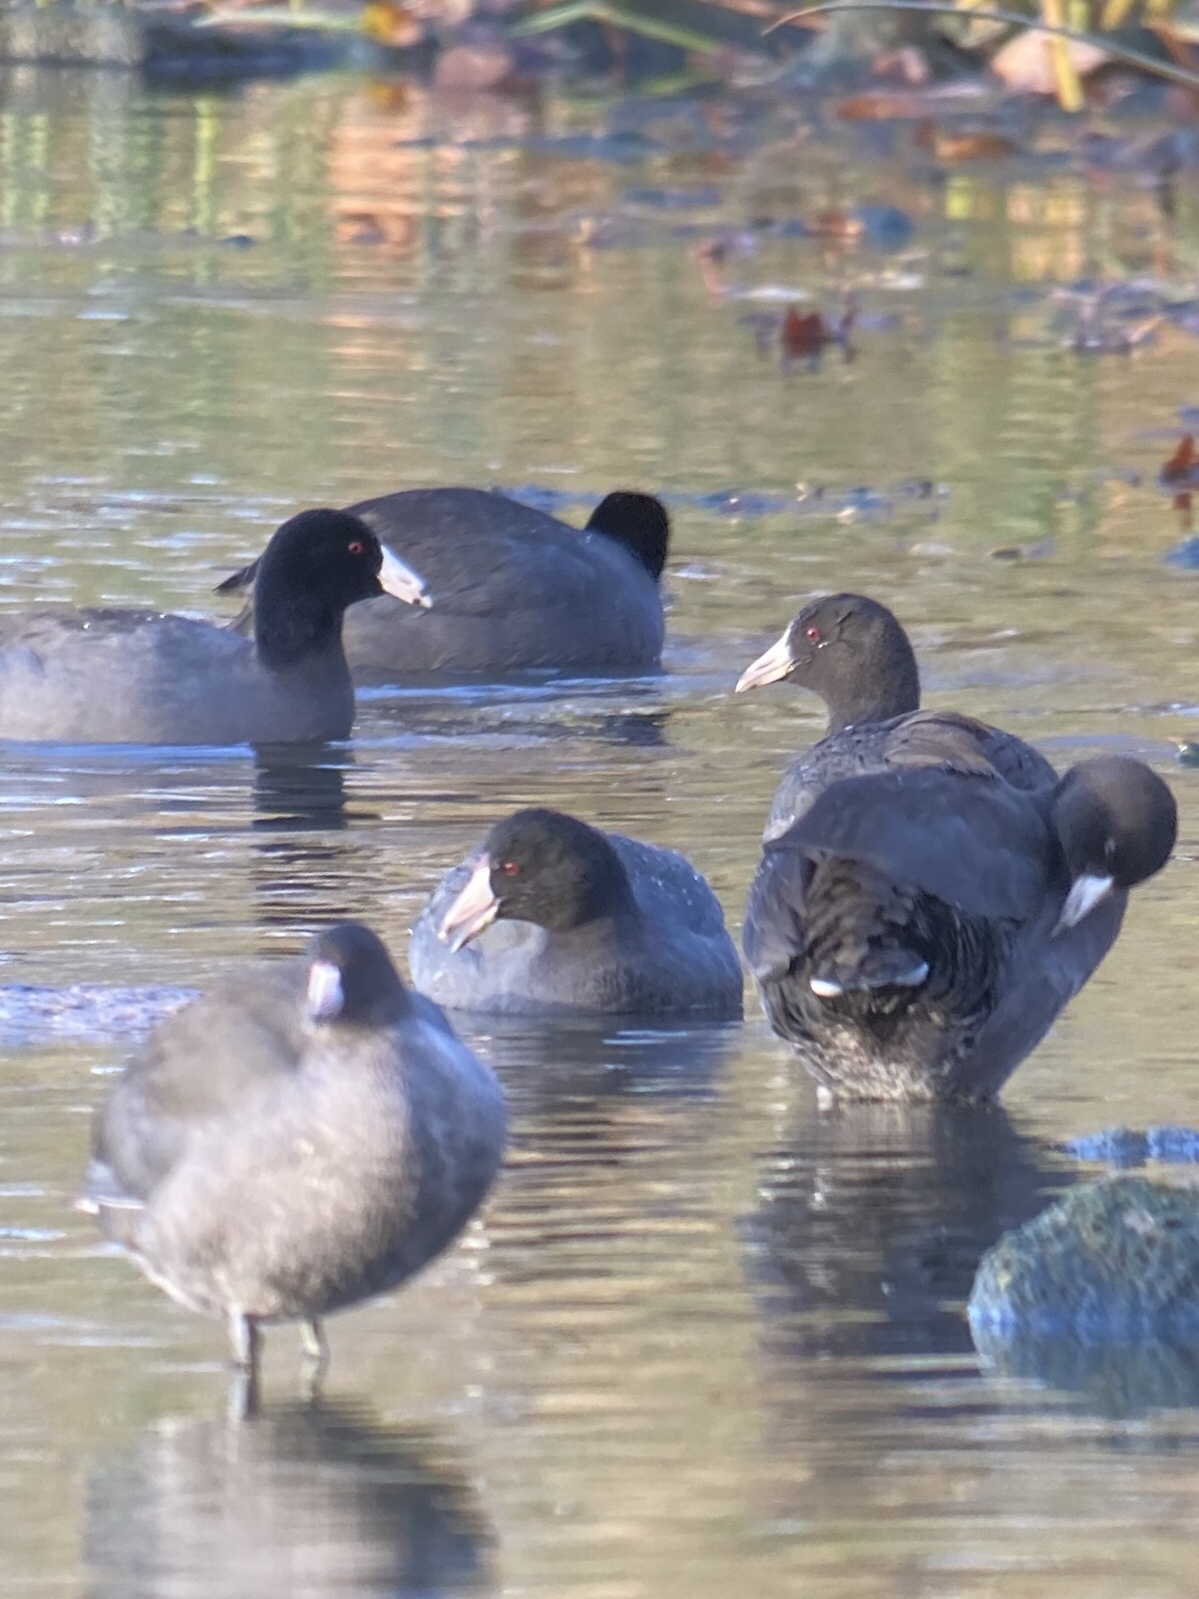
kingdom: Animalia
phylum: Chordata
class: Aves
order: Gruiformes
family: Rallidae
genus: Fulica
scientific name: Fulica americana
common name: American coot
